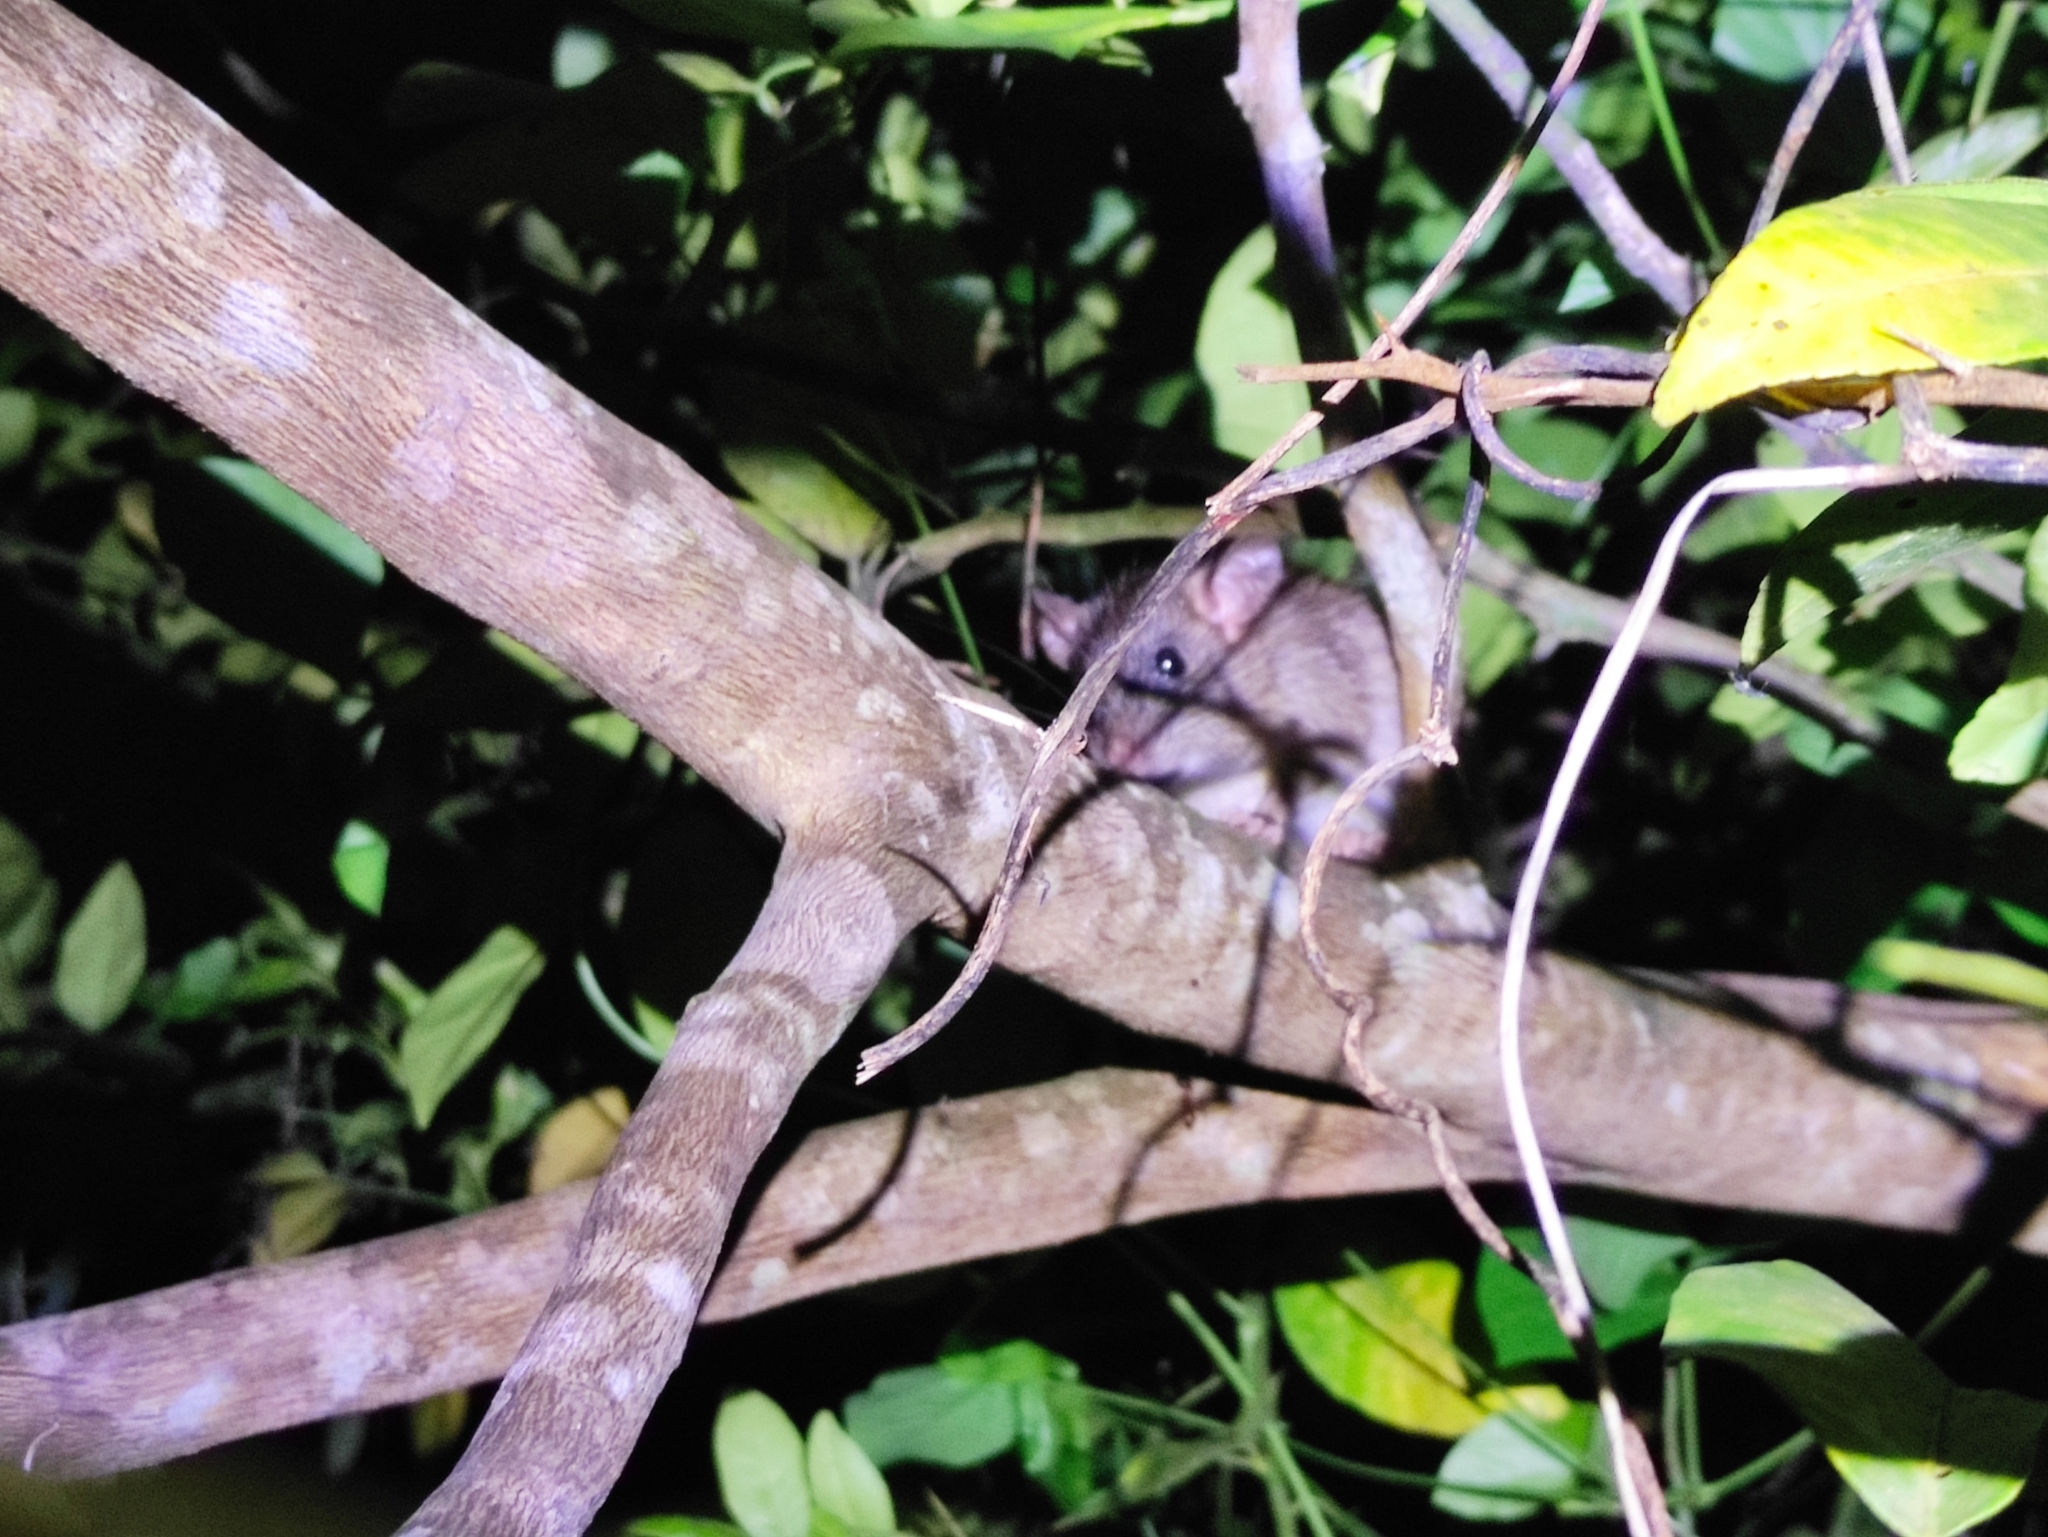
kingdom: Animalia
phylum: Chordata
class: Mammalia
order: Rodentia
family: Muridae
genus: Rattus
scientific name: Rattus rattus
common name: Black rat
